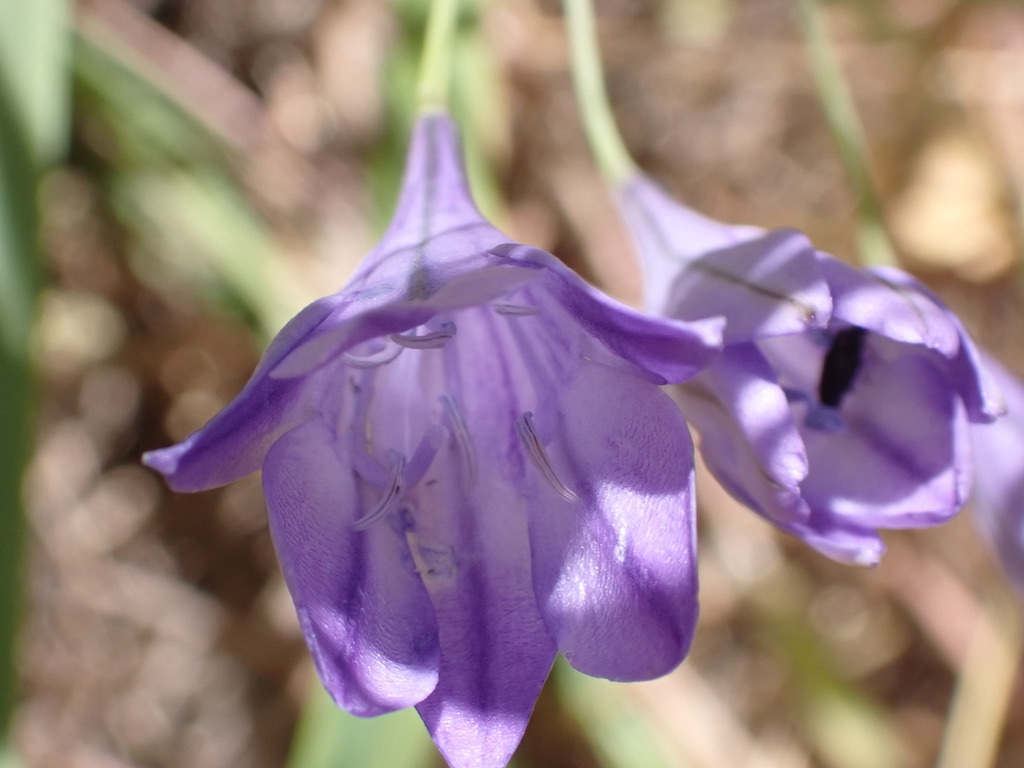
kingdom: Plantae
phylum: Tracheophyta
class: Liliopsida
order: Asparagales
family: Asparagaceae
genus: Triteleia
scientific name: Triteleia laxa
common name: Triplet-lily
